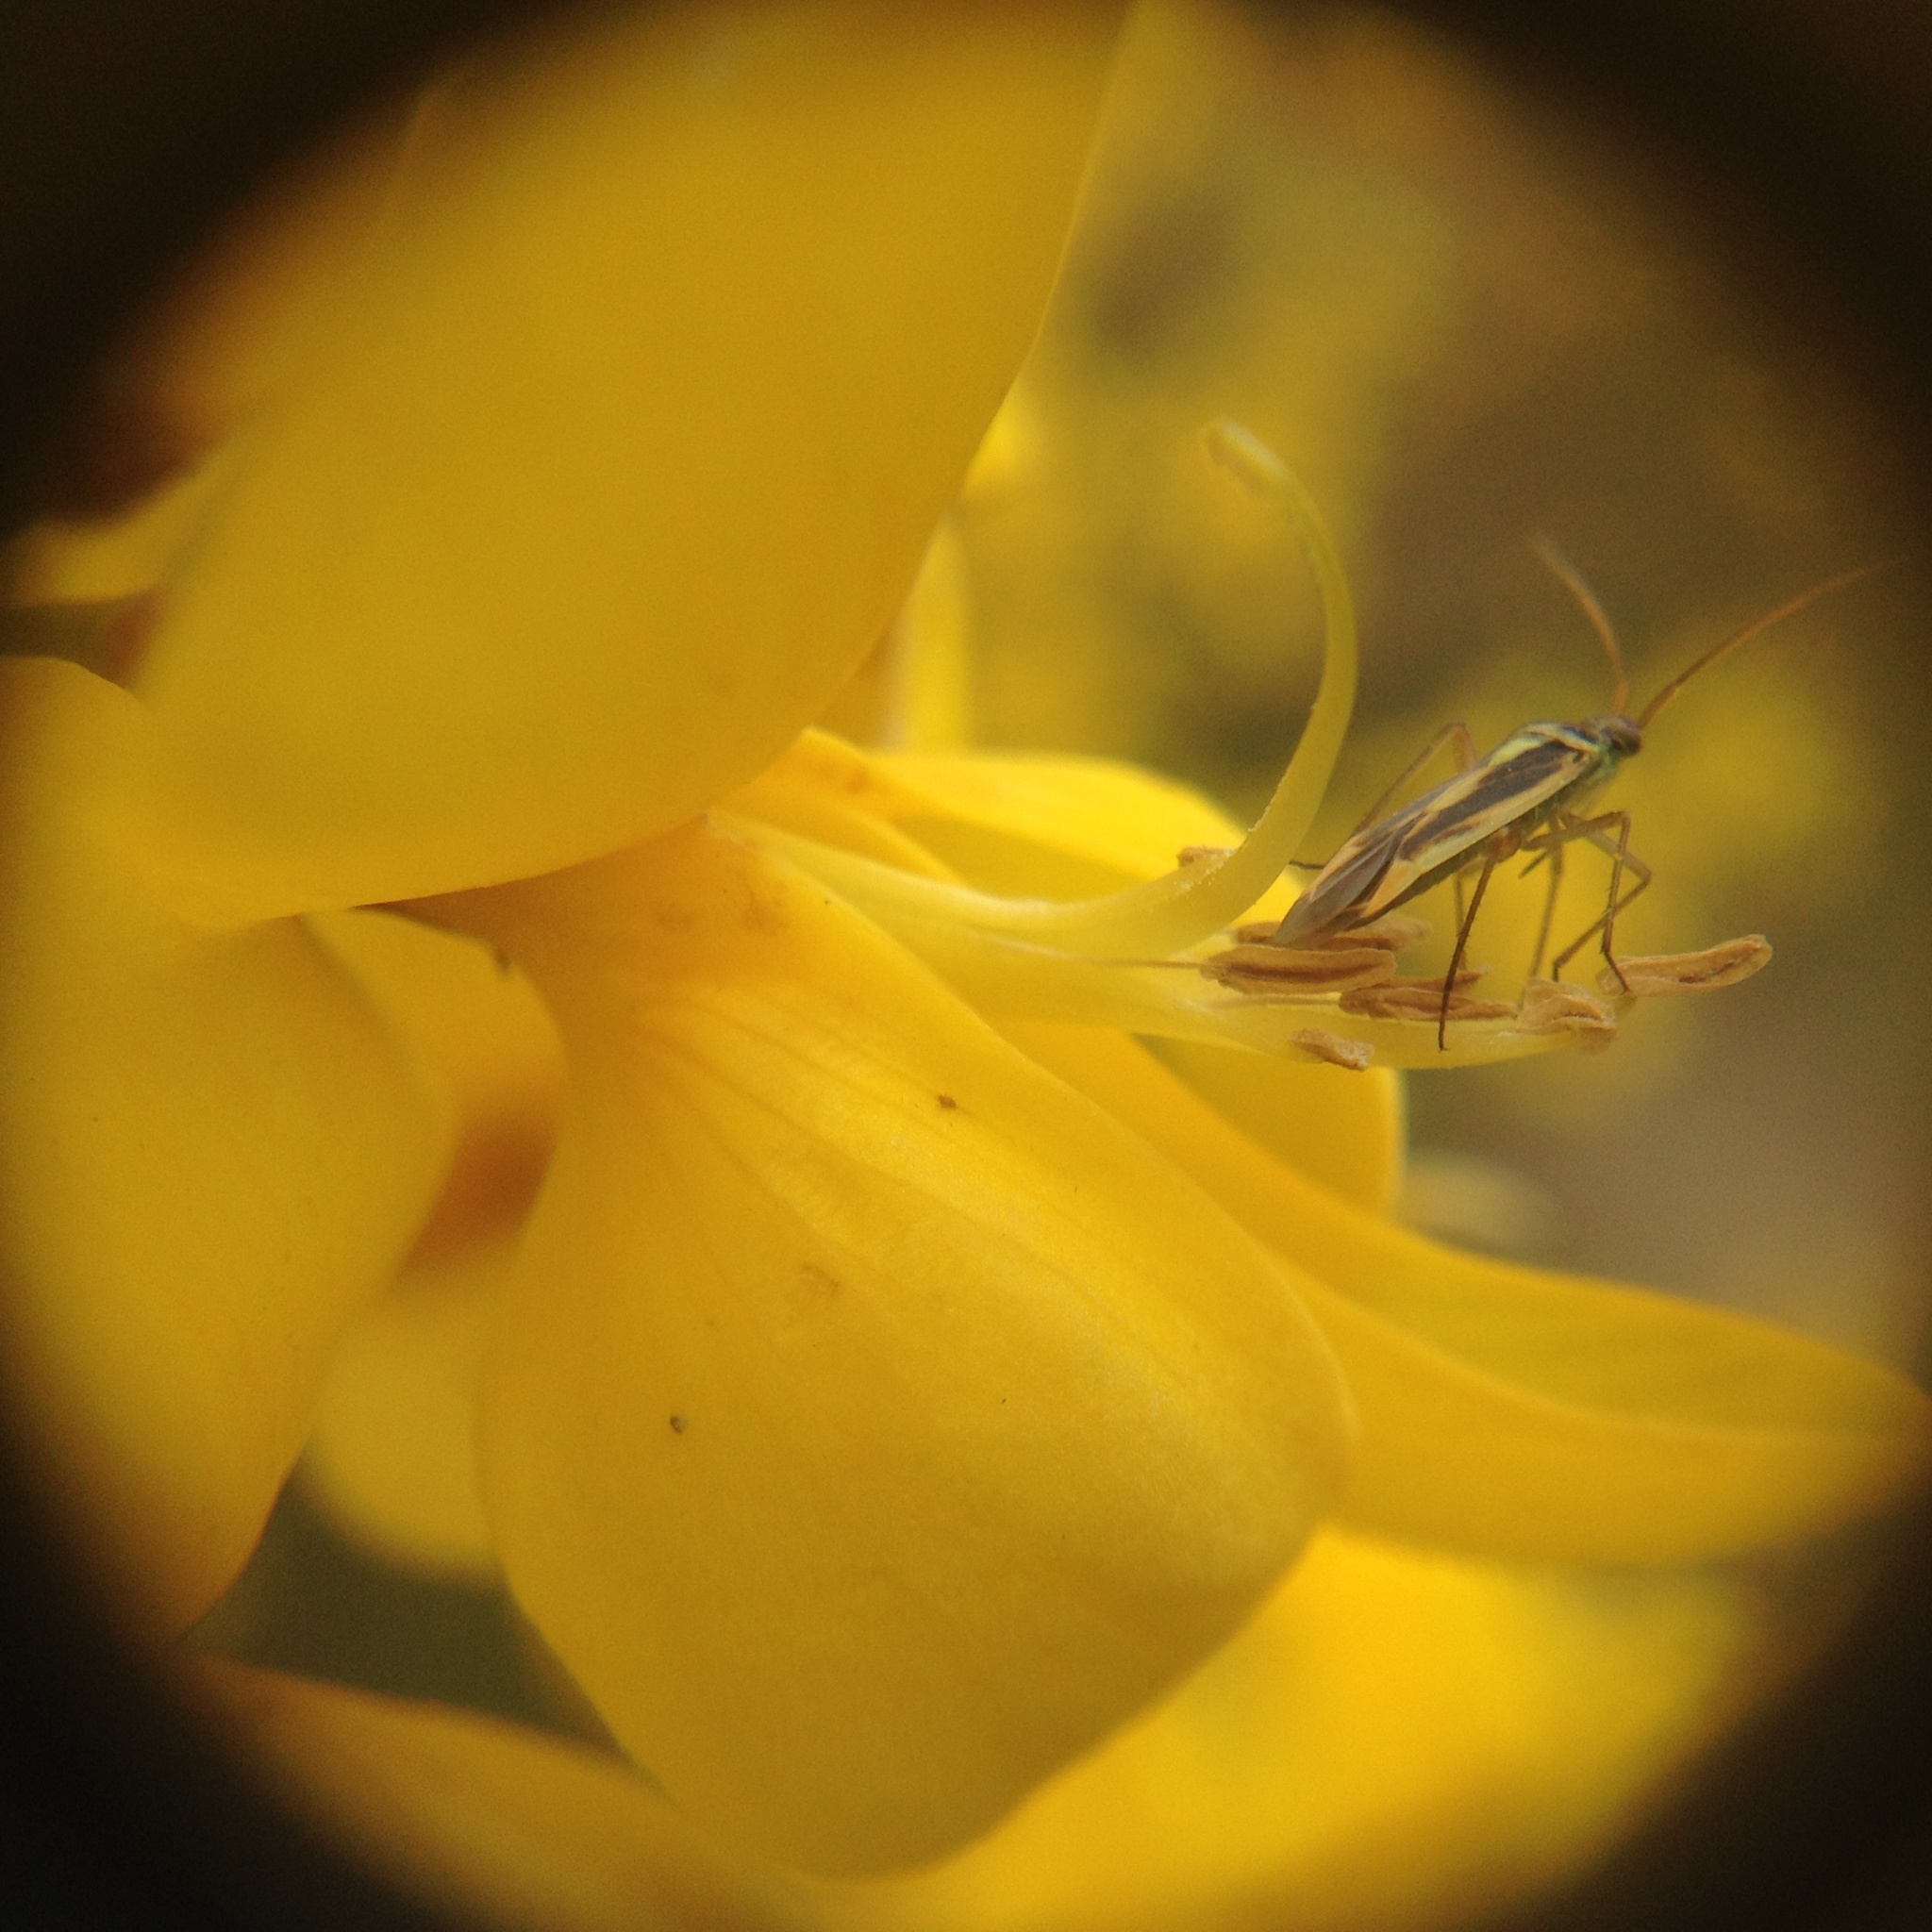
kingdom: Animalia
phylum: Arthropoda
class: Insecta
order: Hemiptera
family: Miridae
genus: Stenotus
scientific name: Stenotus binotatus
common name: Plant bug
